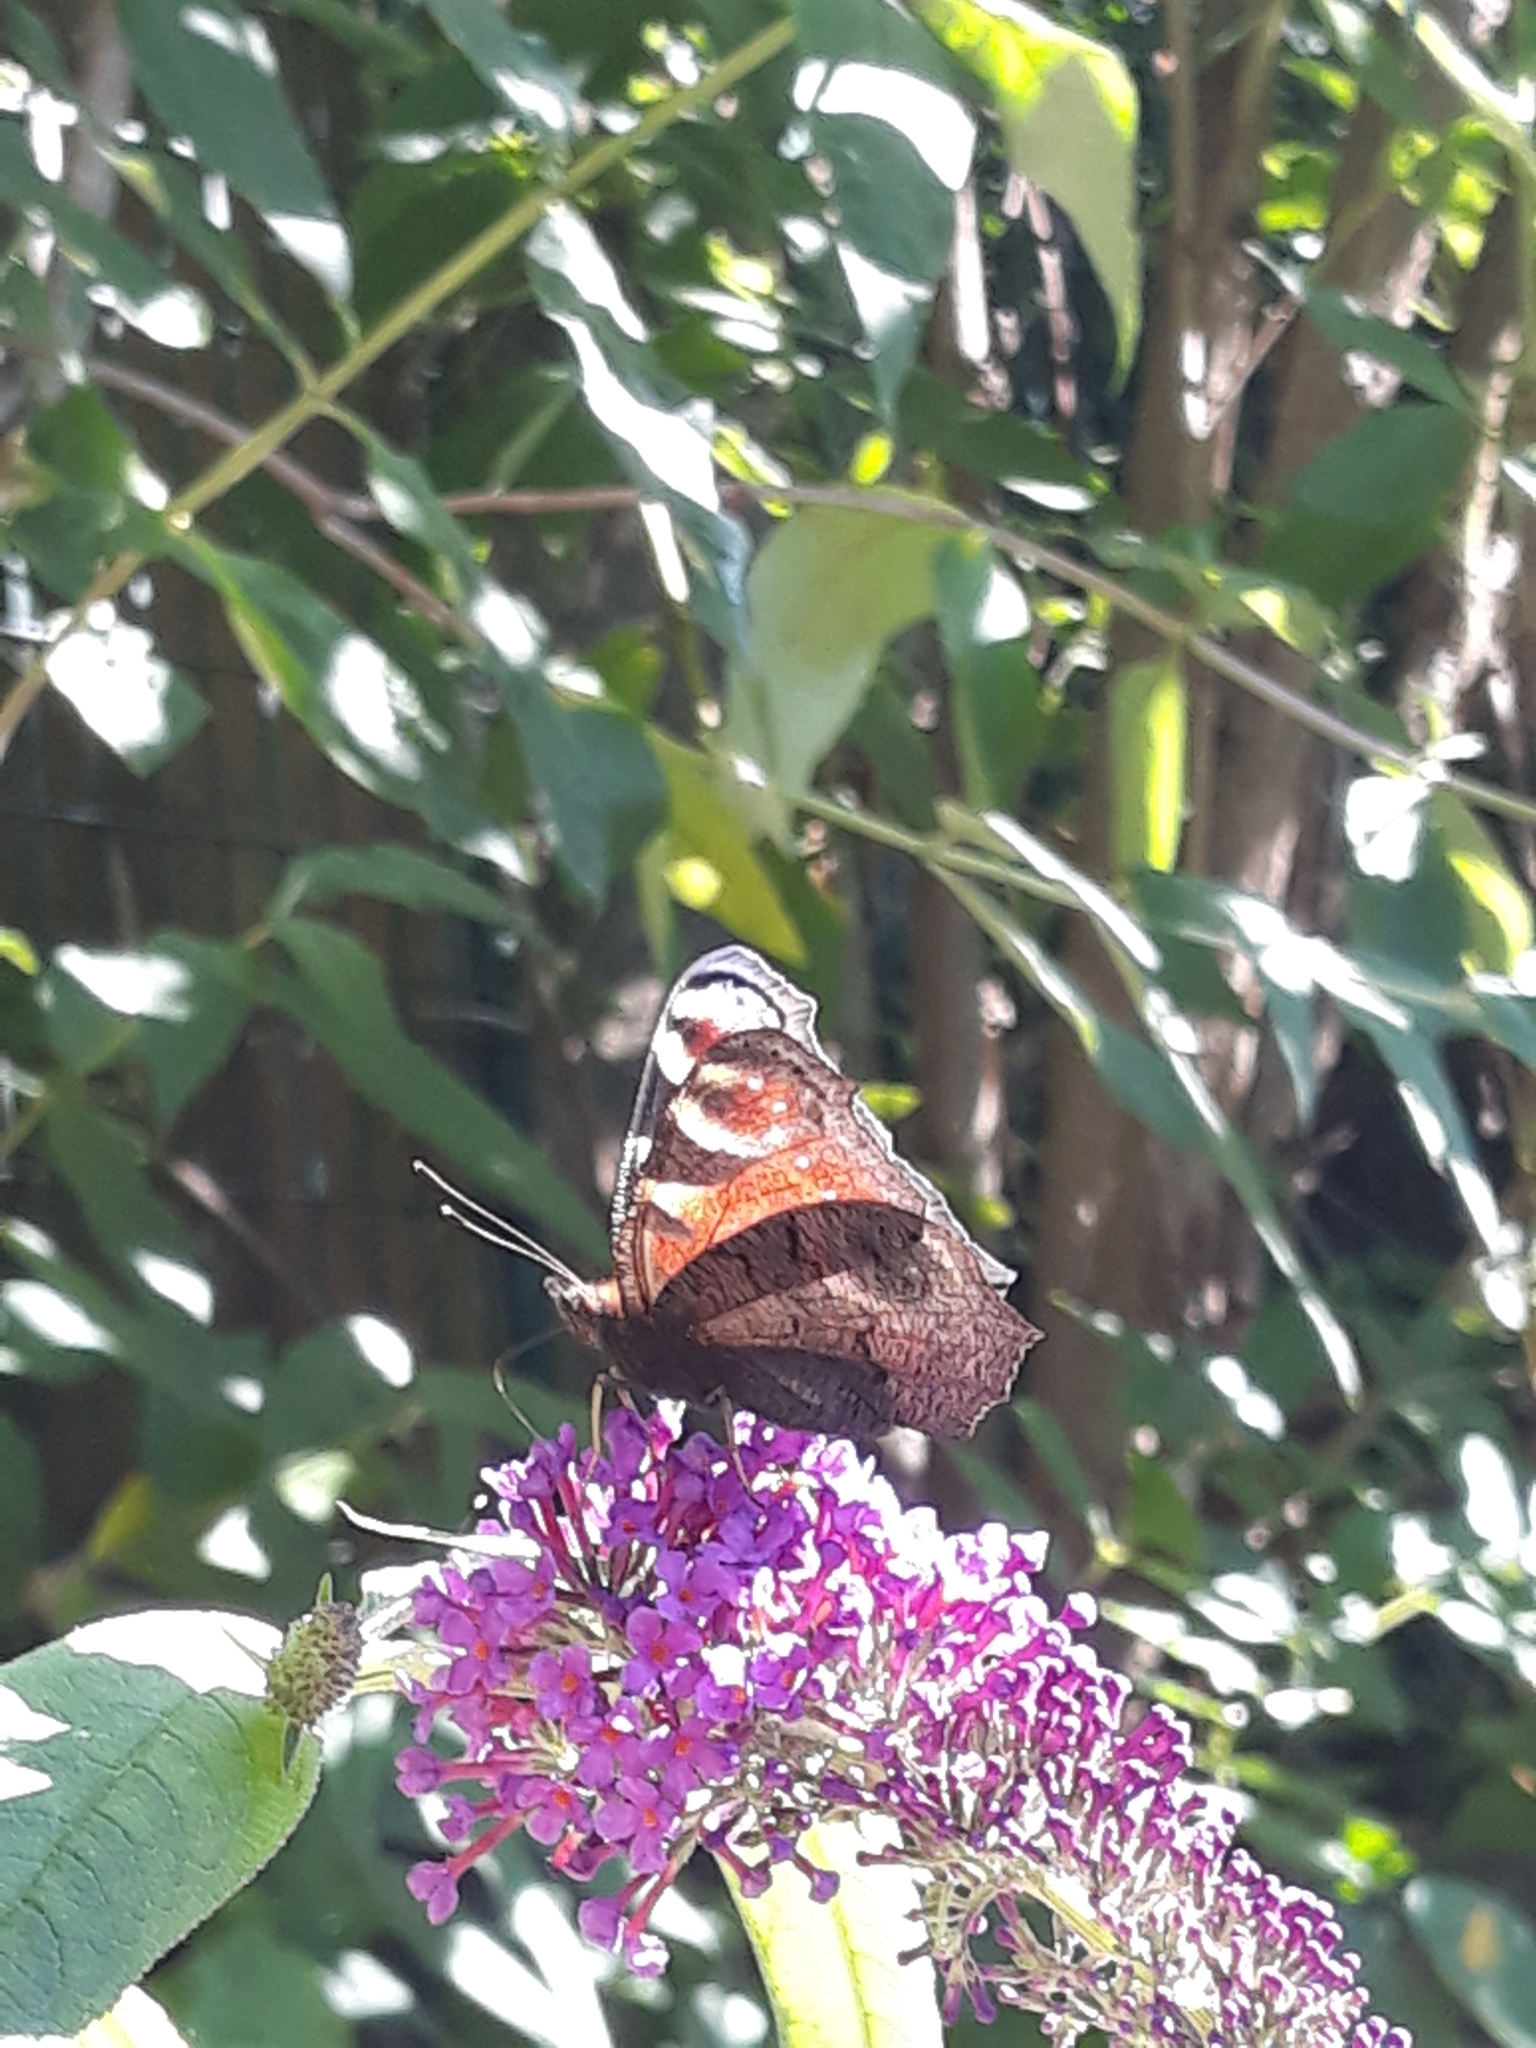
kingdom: Animalia
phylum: Arthropoda
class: Insecta
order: Lepidoptera
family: Nymphalidae
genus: Aglais
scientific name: Aglais io
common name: Peacock
